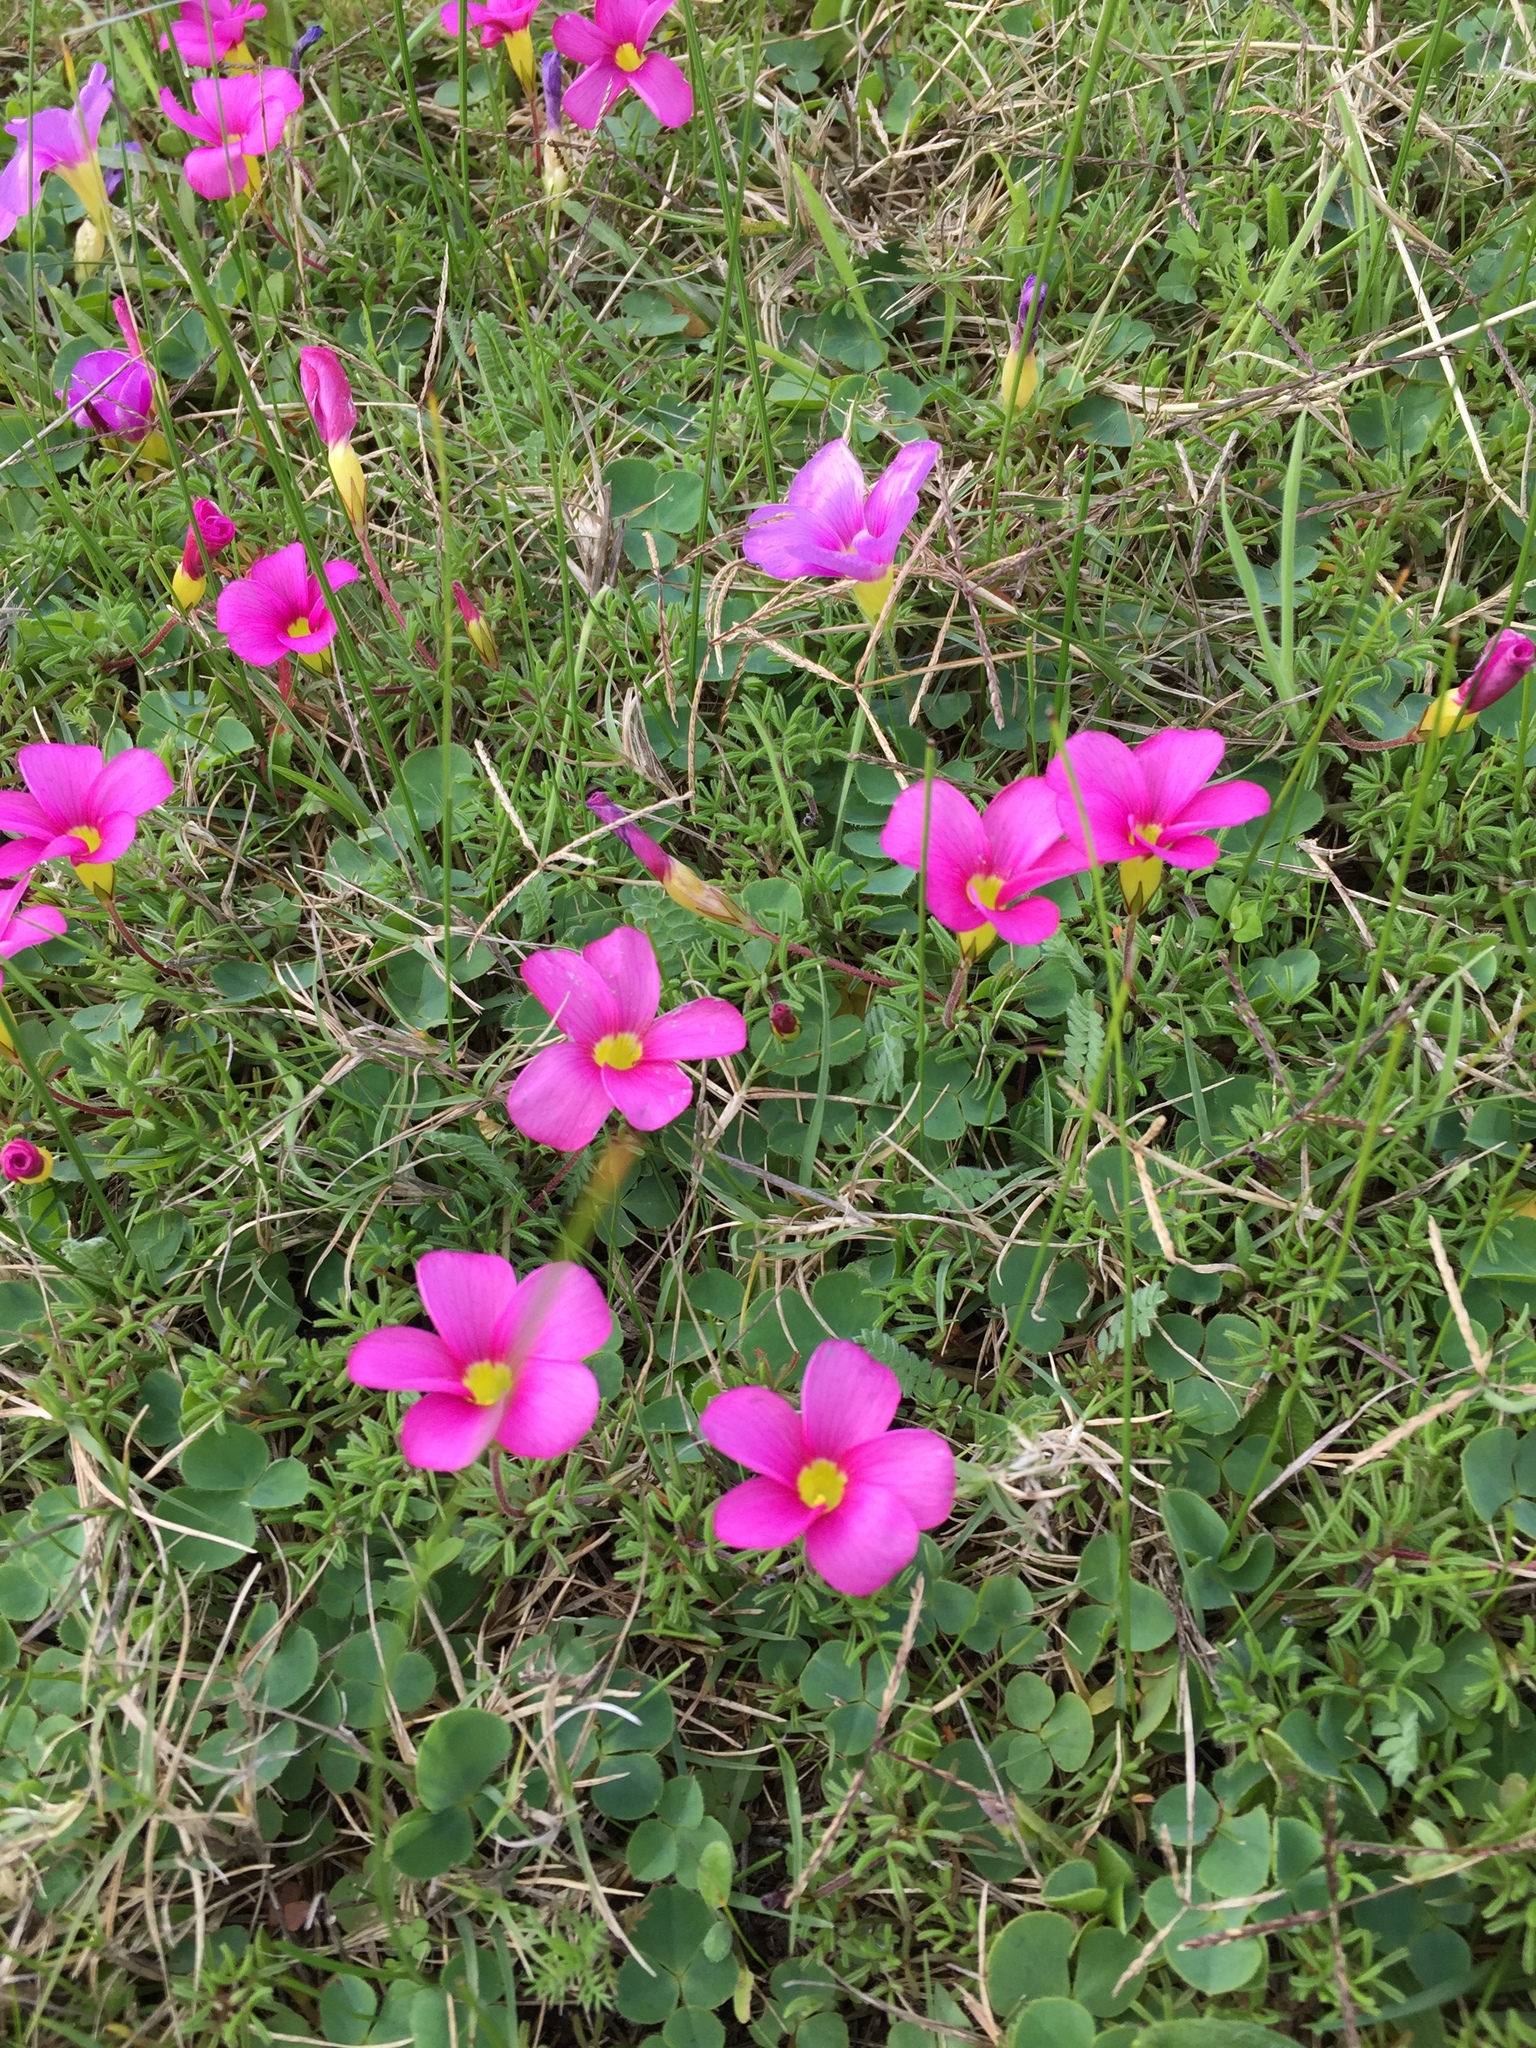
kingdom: Plantae
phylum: Tracheophyta
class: Magnoliopsida
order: Oxalidales
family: Oxalidaceae
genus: Oxalis
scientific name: Oxalis glabra
